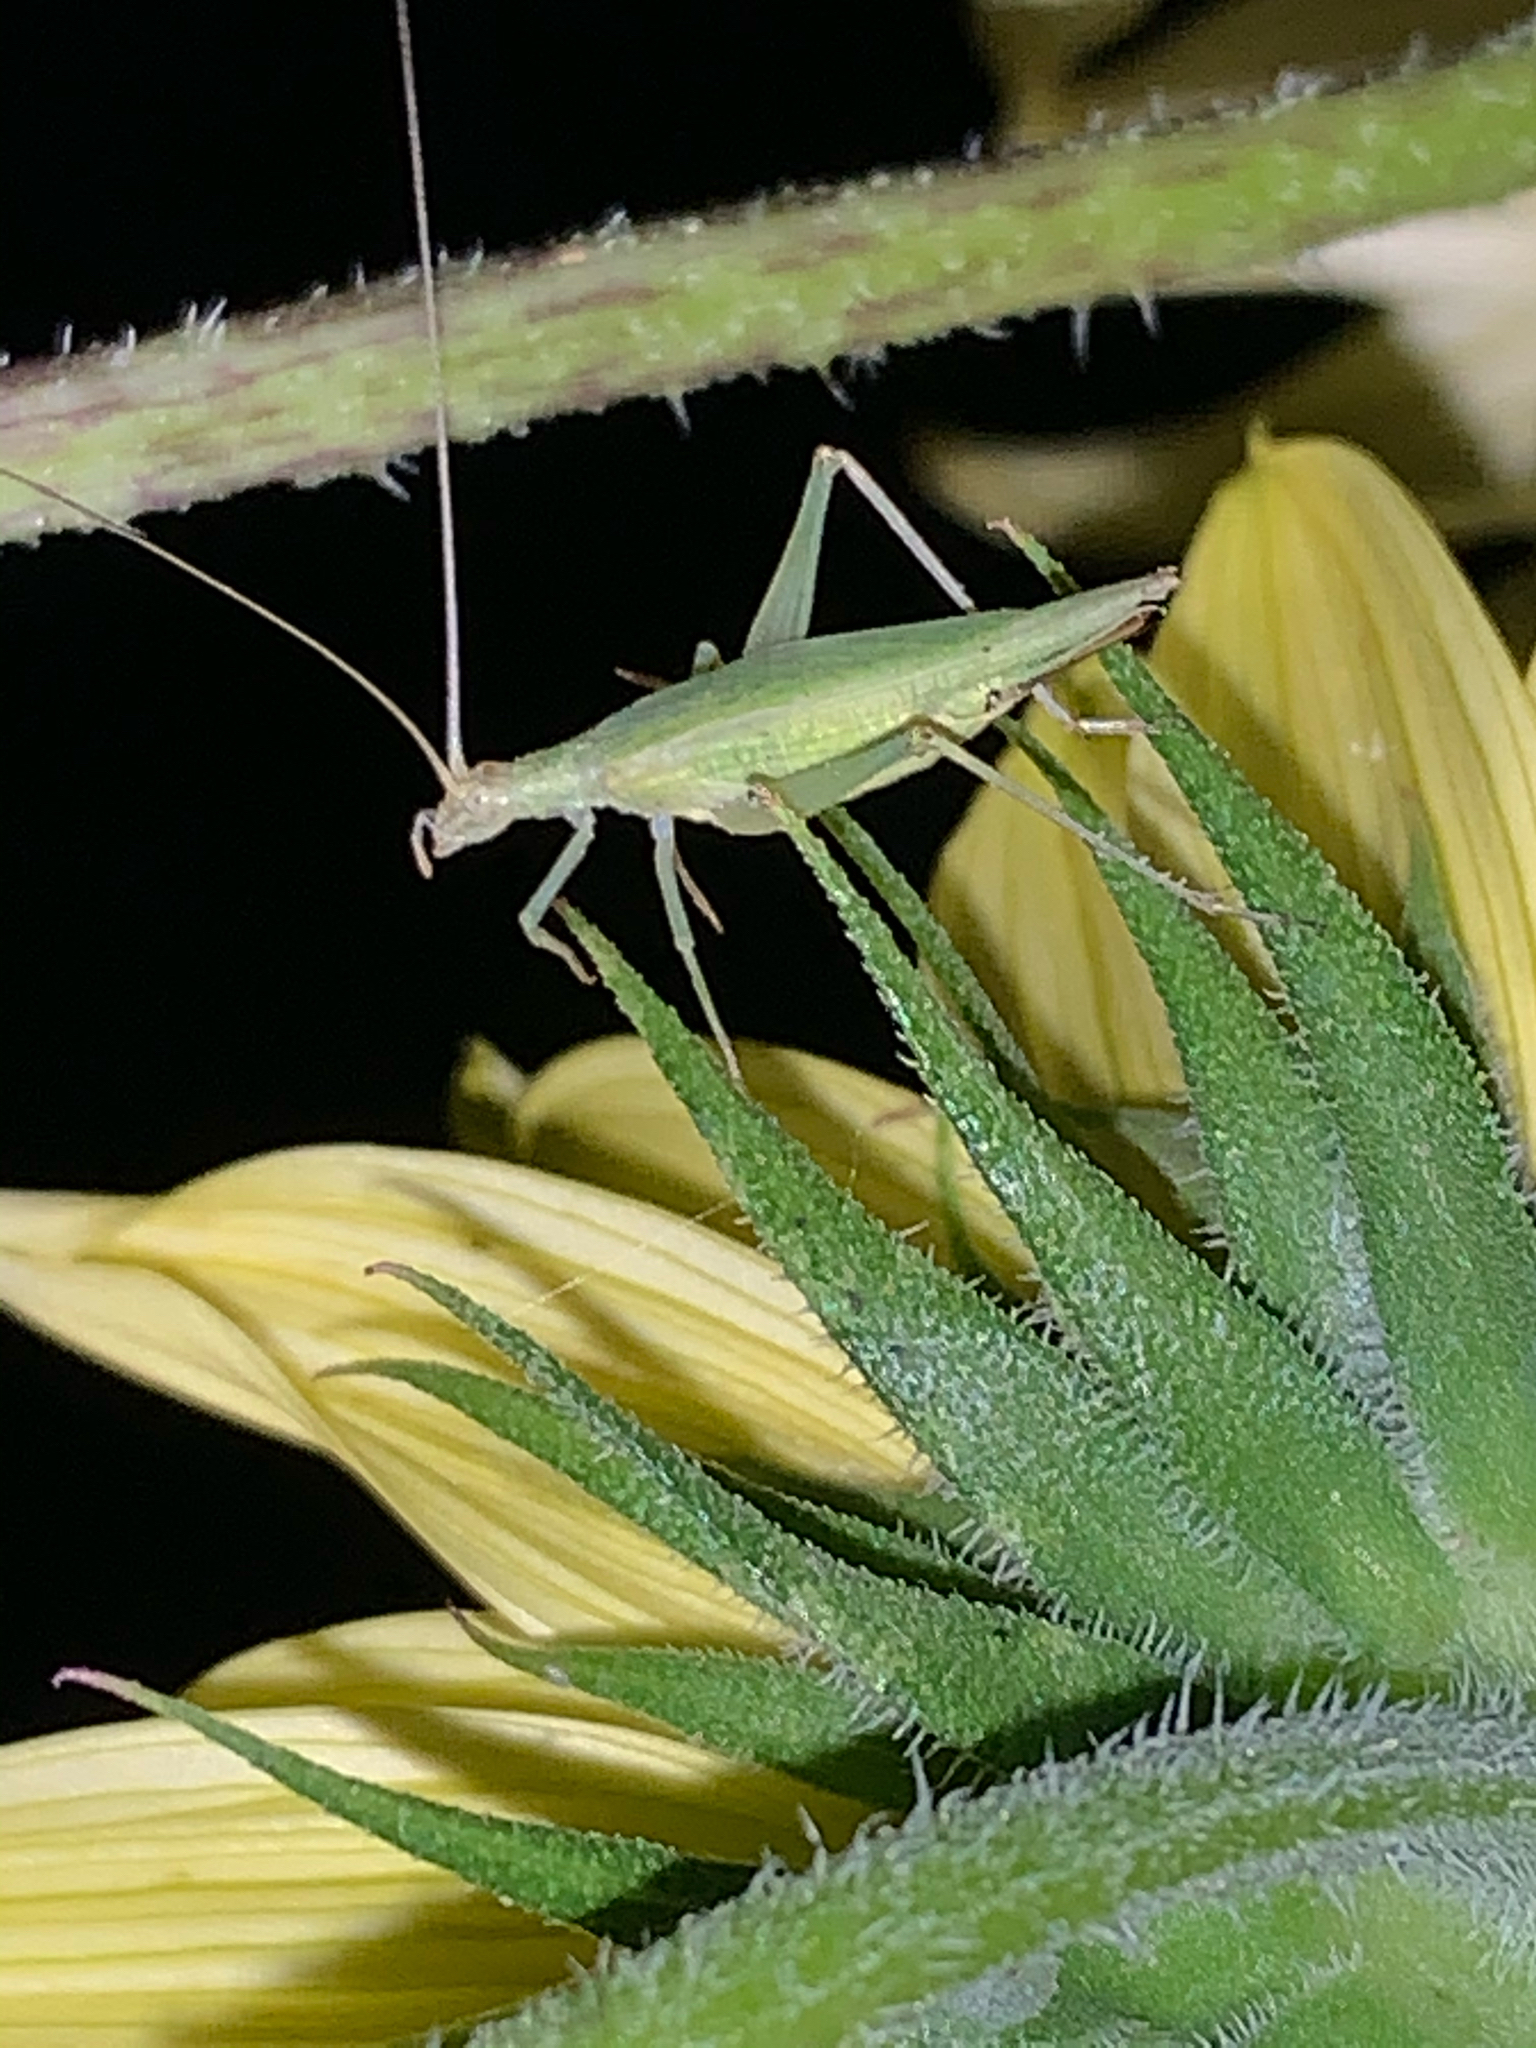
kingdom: Animalia
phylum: Arthropoda
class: Insecta
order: Orthoptera
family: Gryllidae
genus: Oecanthus
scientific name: Oecanthus
